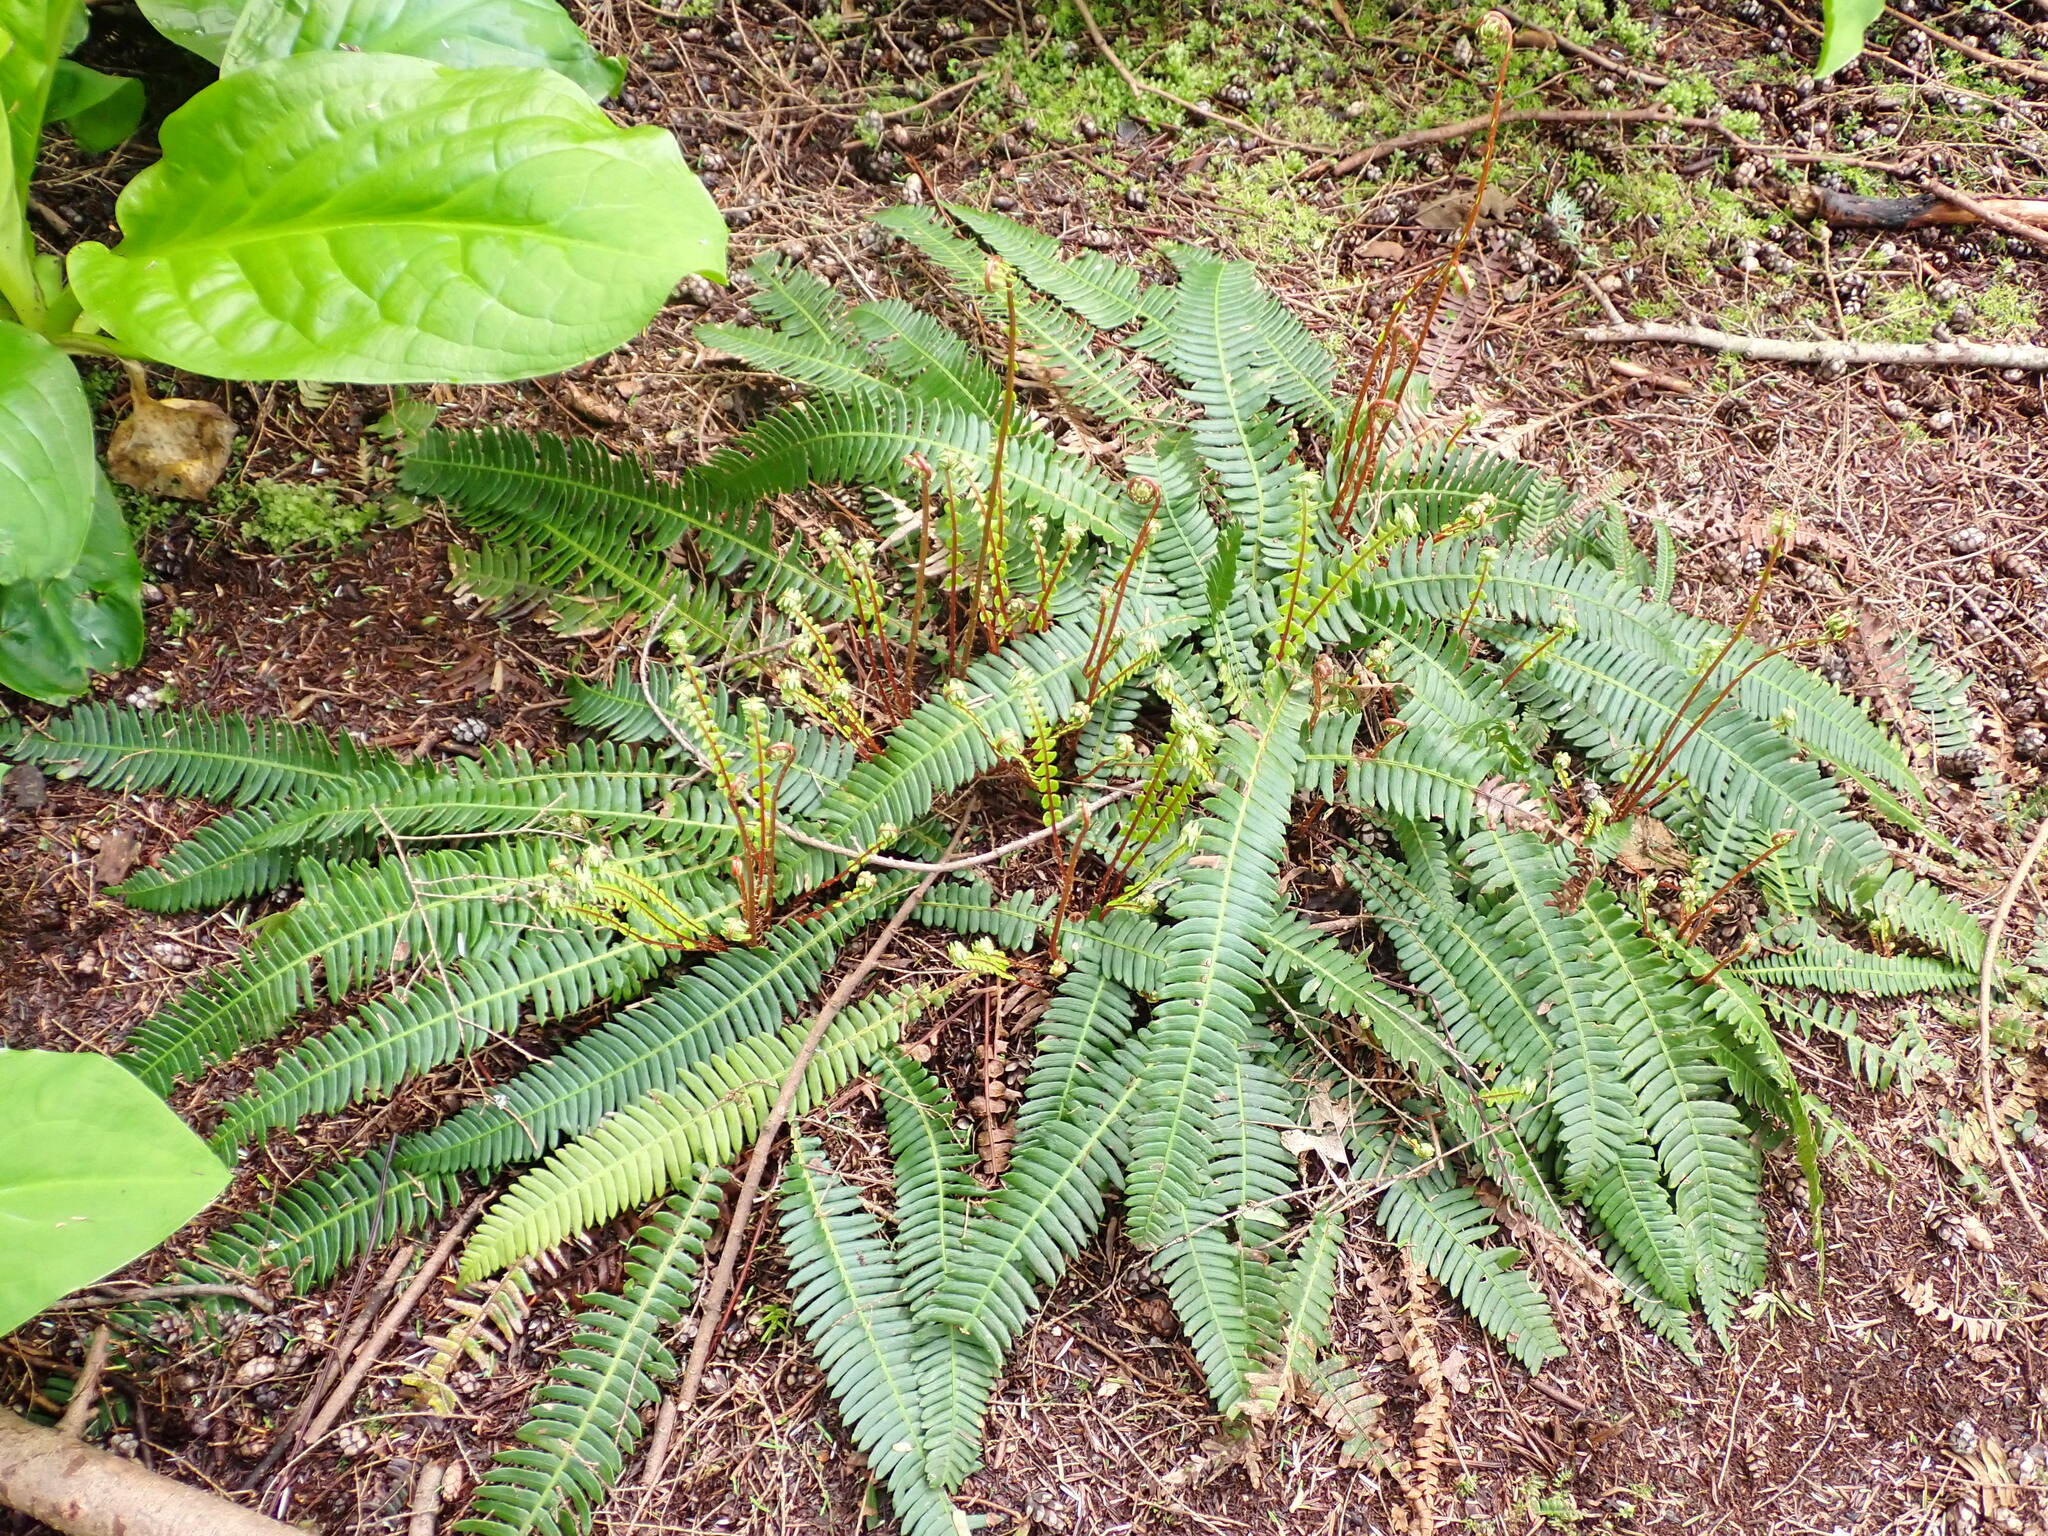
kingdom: Plantae
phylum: Tracheophyta
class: Polypodiopsida
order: Polypodiales
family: Blechnaceae
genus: Struthiopteris
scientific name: Struthiopteris spicant
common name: Deer fern
